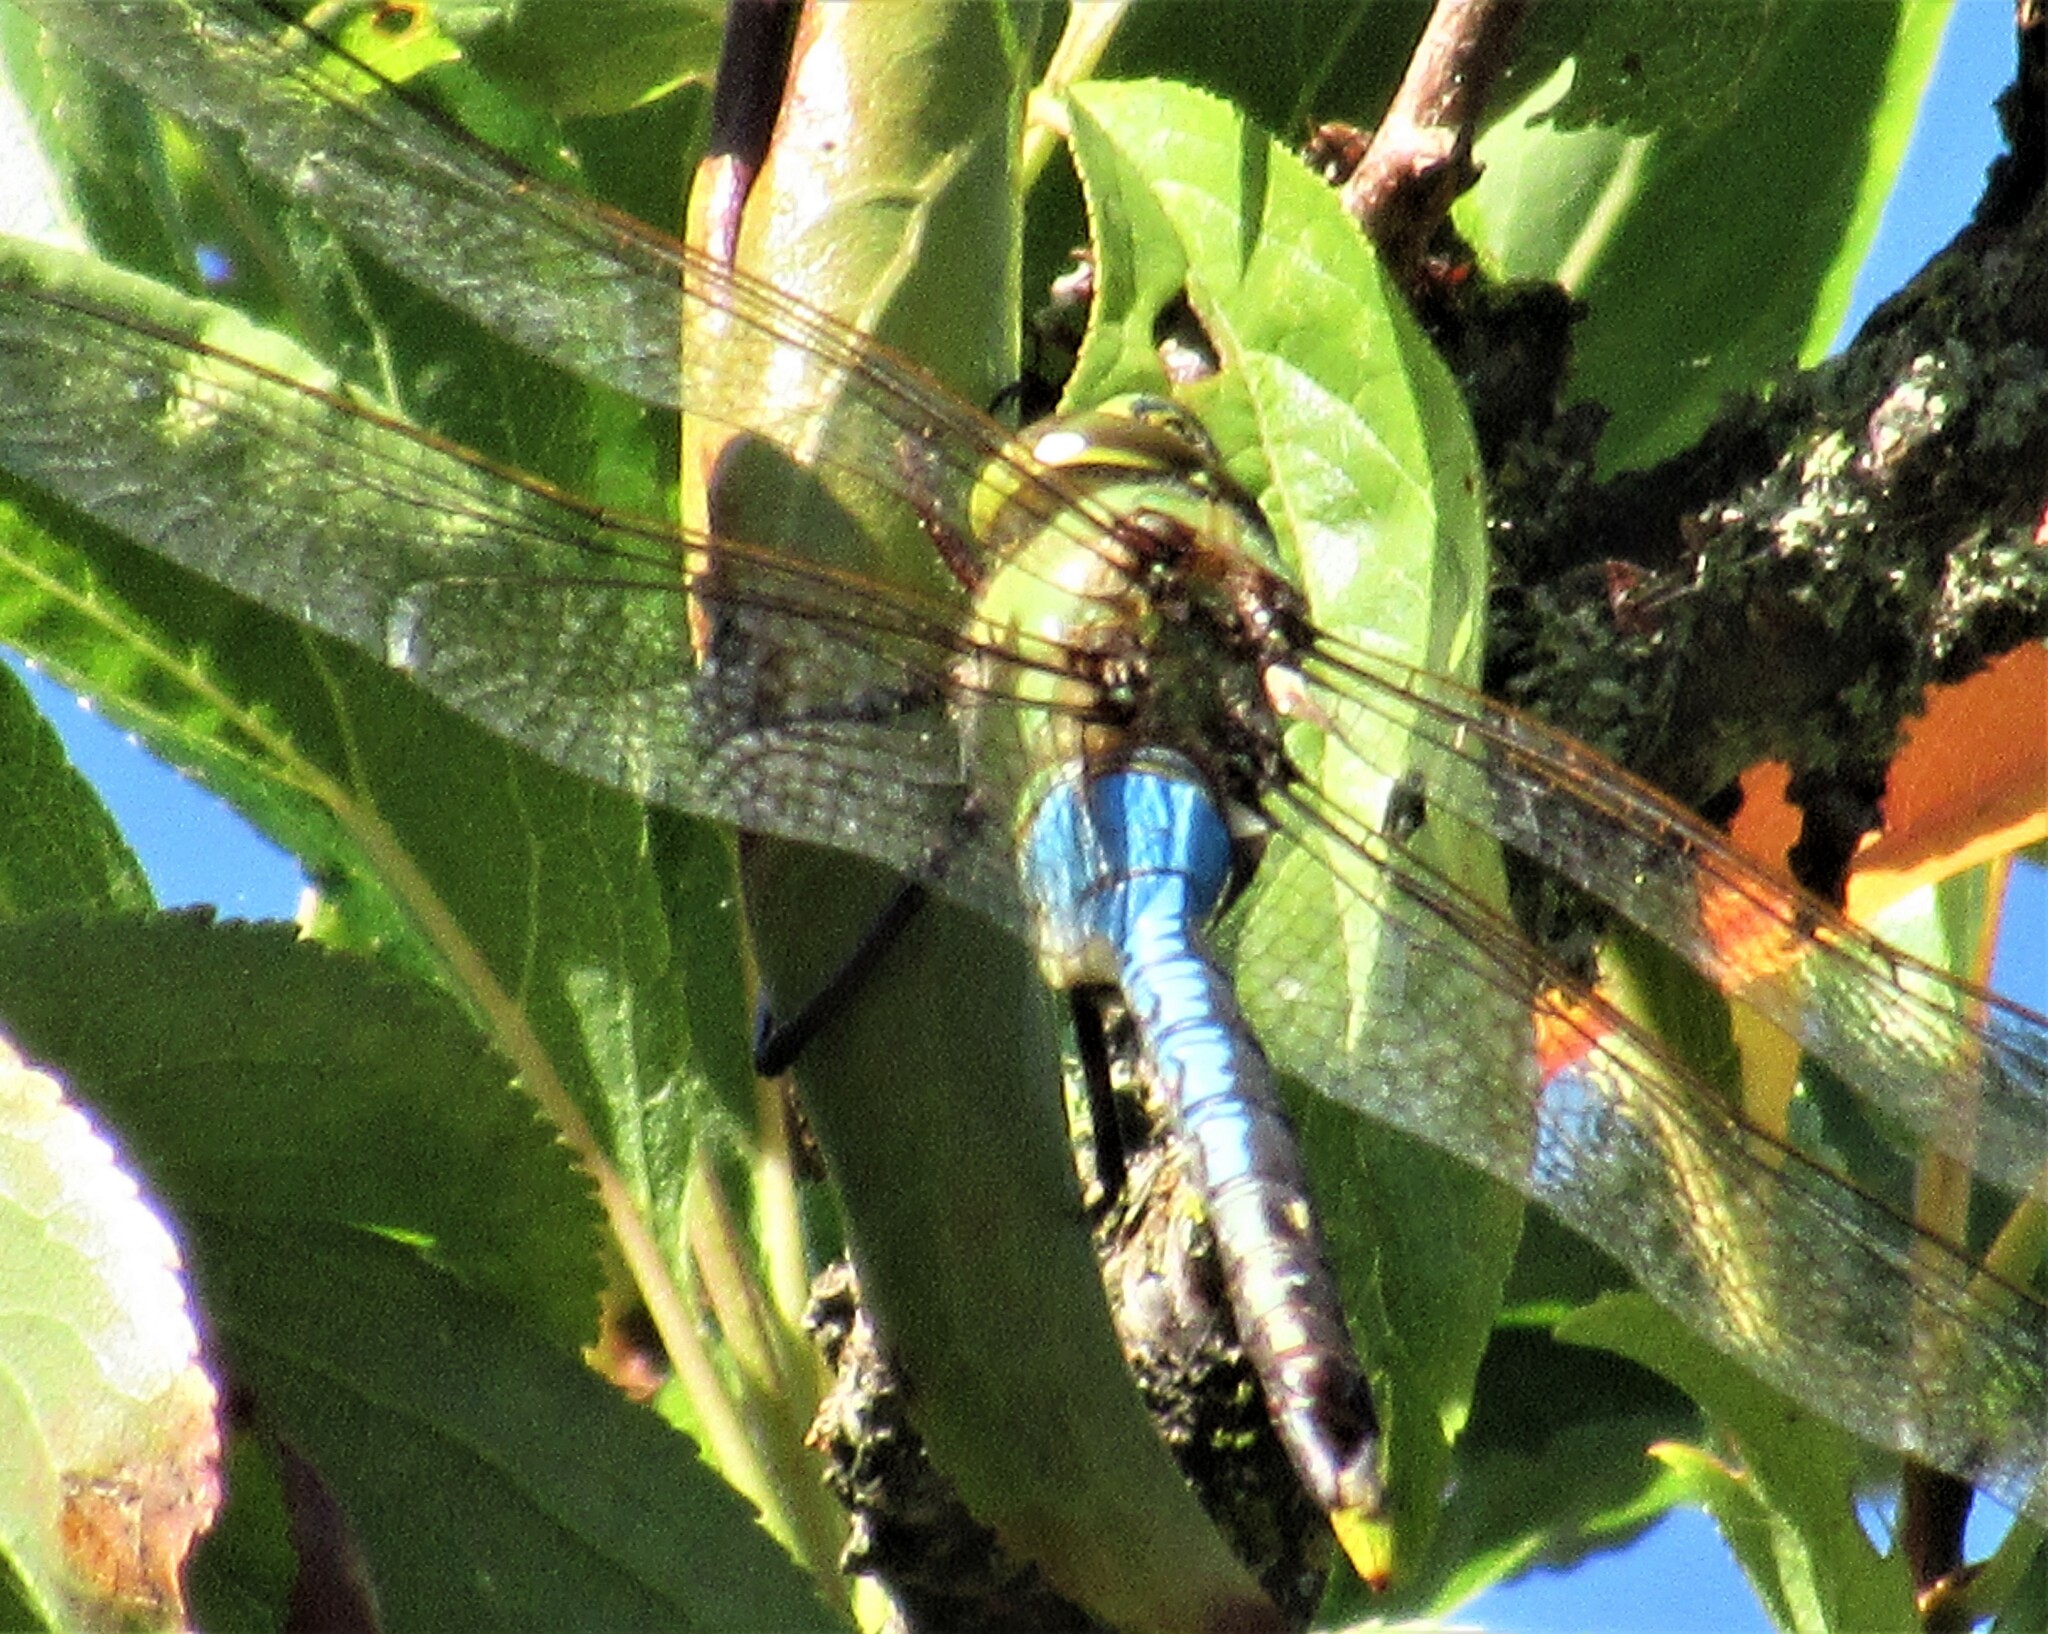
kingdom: Animalia
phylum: Arthropoda
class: Insecta
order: Odonata
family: Aeshnidae
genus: Anax
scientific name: Anax junius
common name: Common green darner
